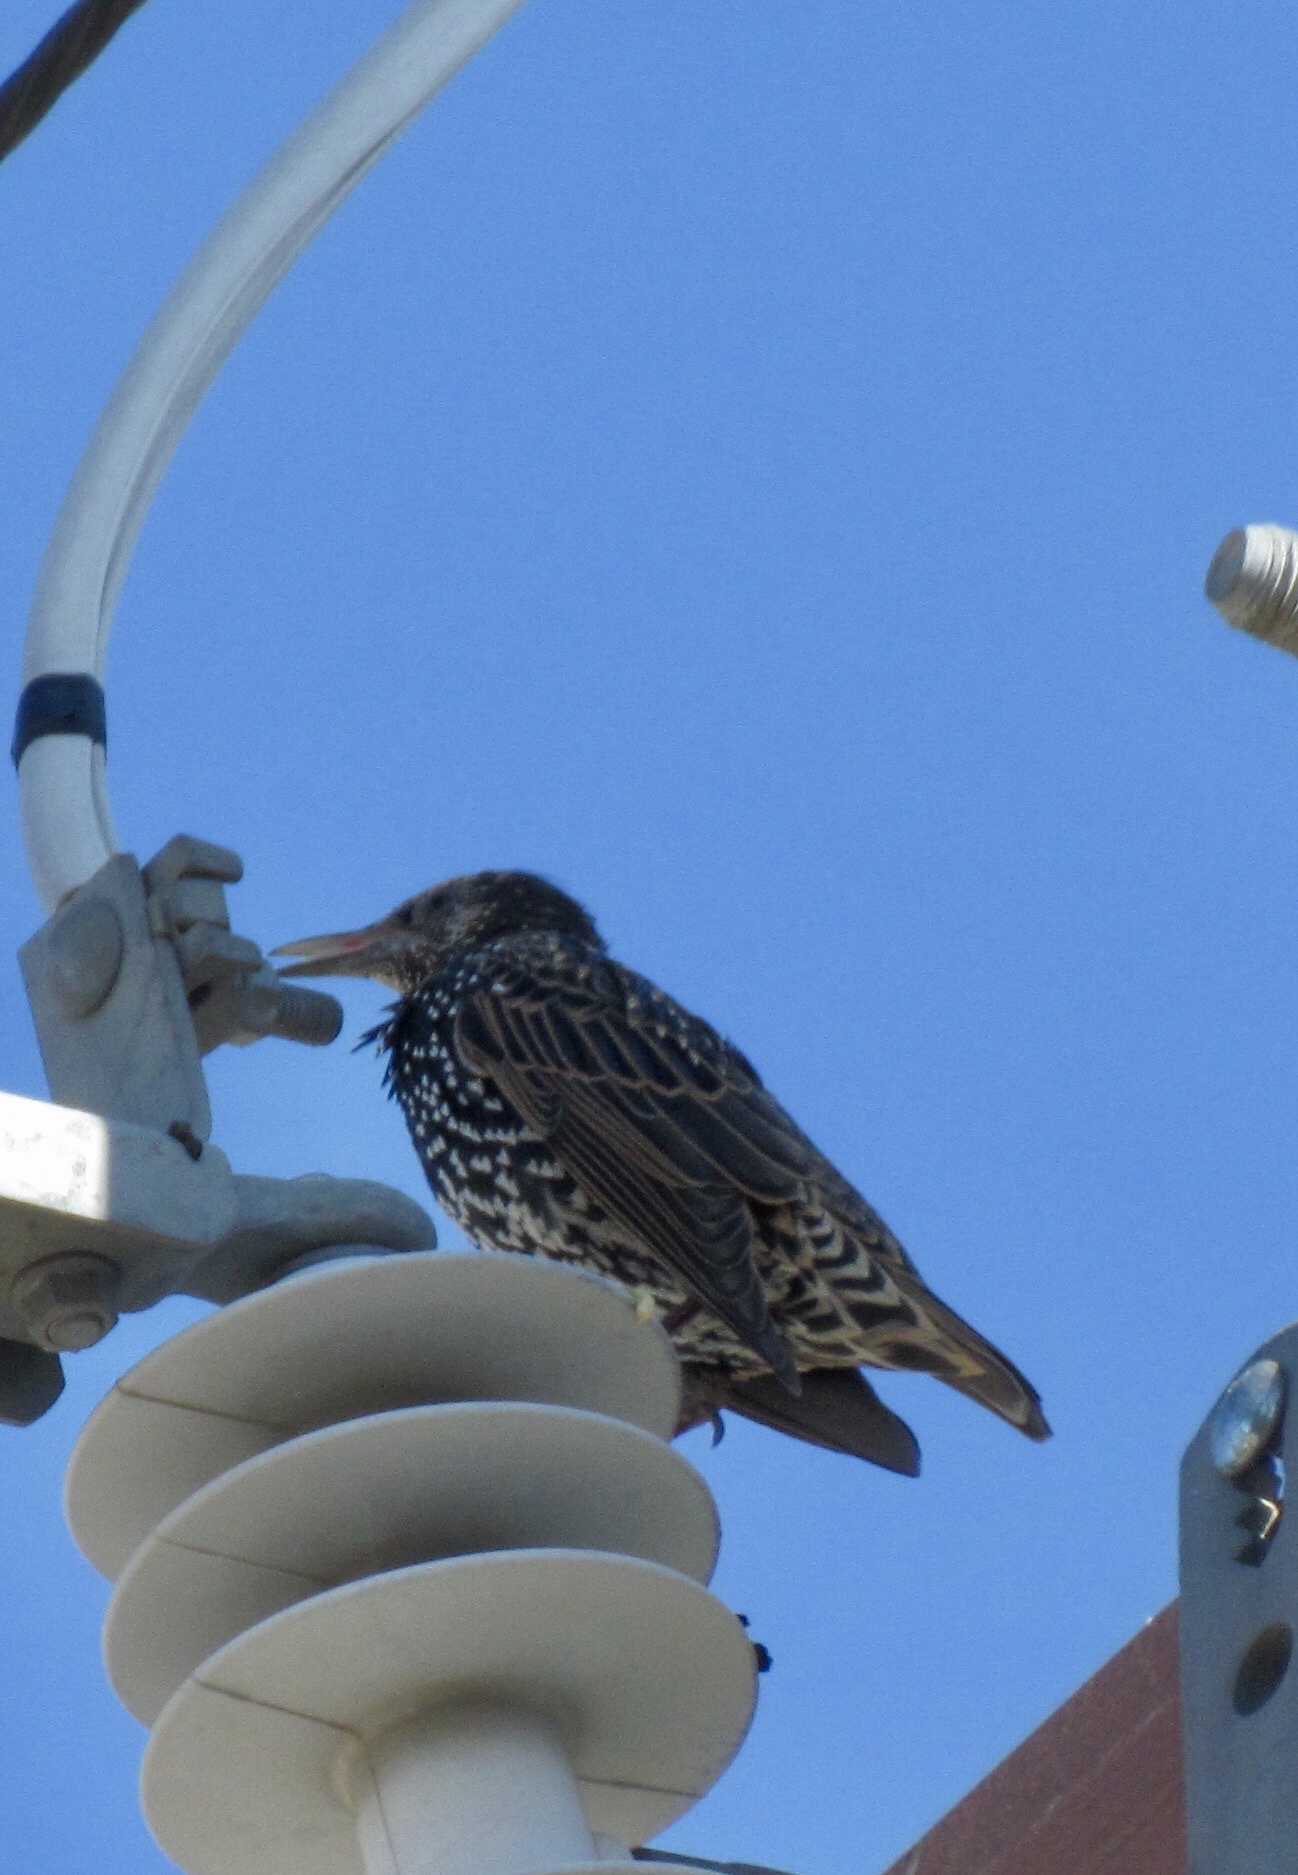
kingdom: Animalia
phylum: Chordata
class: Aves
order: Passeriformes
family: Sturnidae
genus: Sturnus
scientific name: Sturnus vulgaris
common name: Common starling
